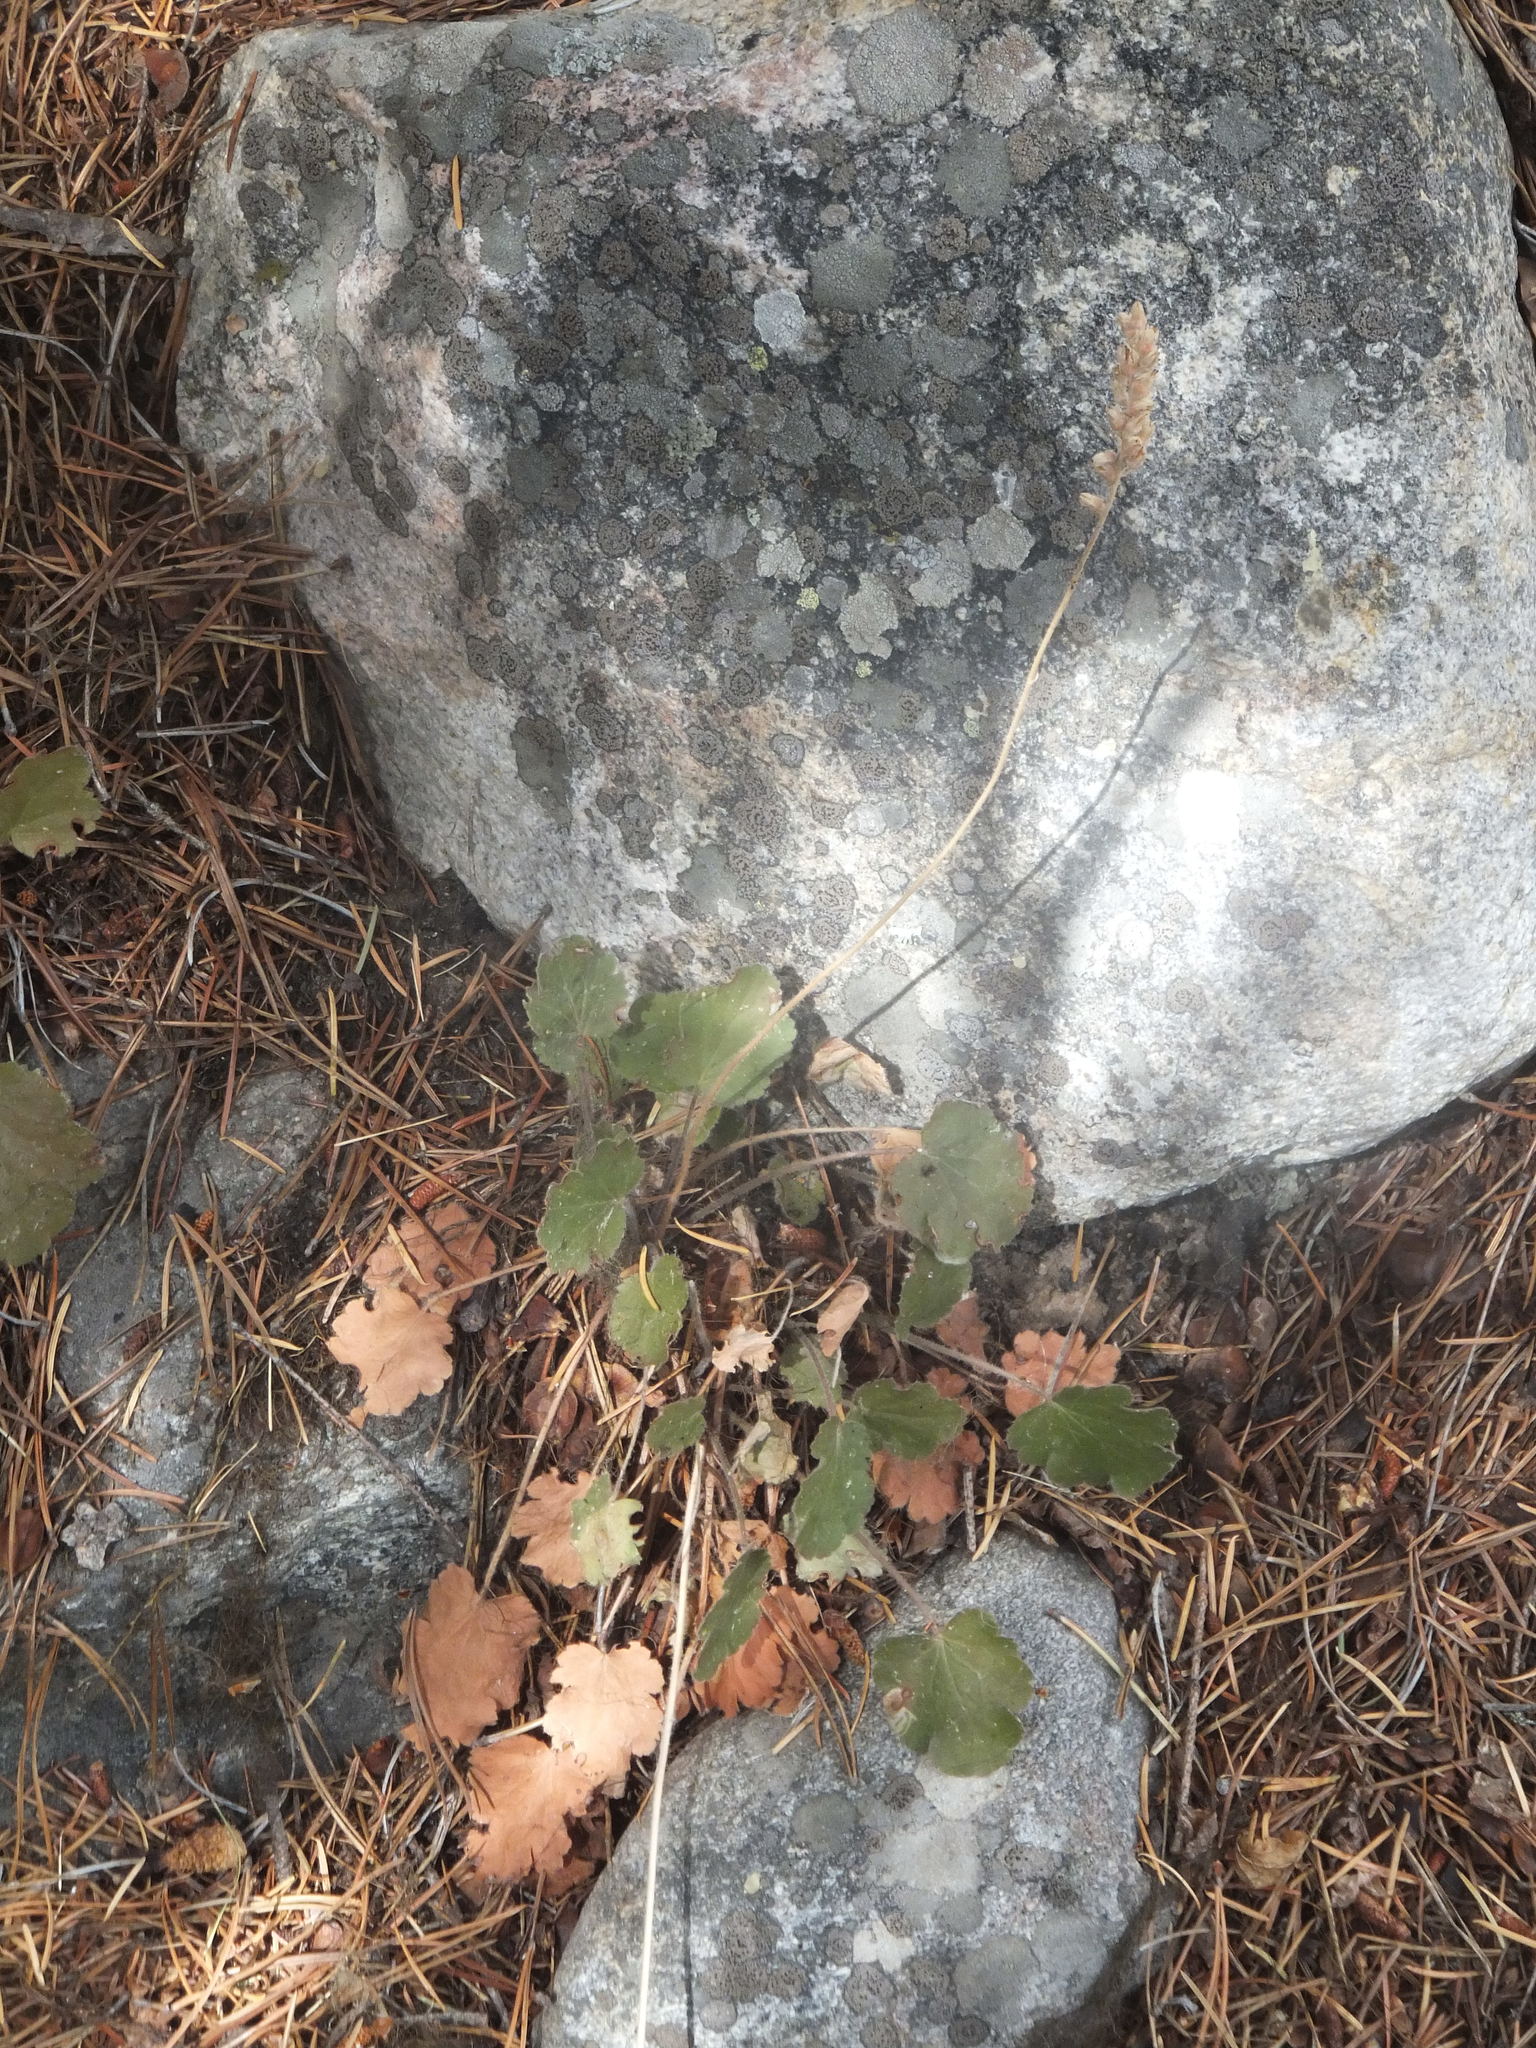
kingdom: Plantae
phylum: Tracheophyta
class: Magnoliopsida
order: Saxifragales
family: Saxifragaceae
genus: Heuchera
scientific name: Heuchera cylindrica
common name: Mat alumroot
